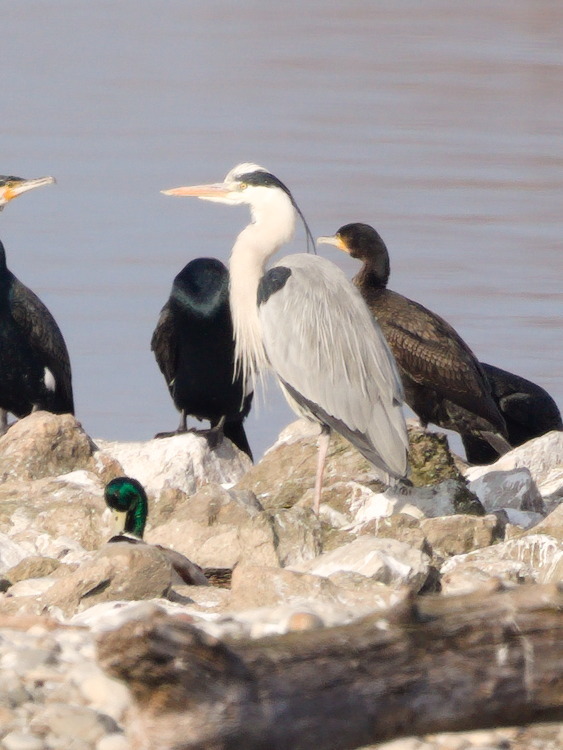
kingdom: Animalia
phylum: Chordata
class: Aves
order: Pelecaniformes
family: Ardeidae
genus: Ardea
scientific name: Ardea cinerea
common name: Grey heron
